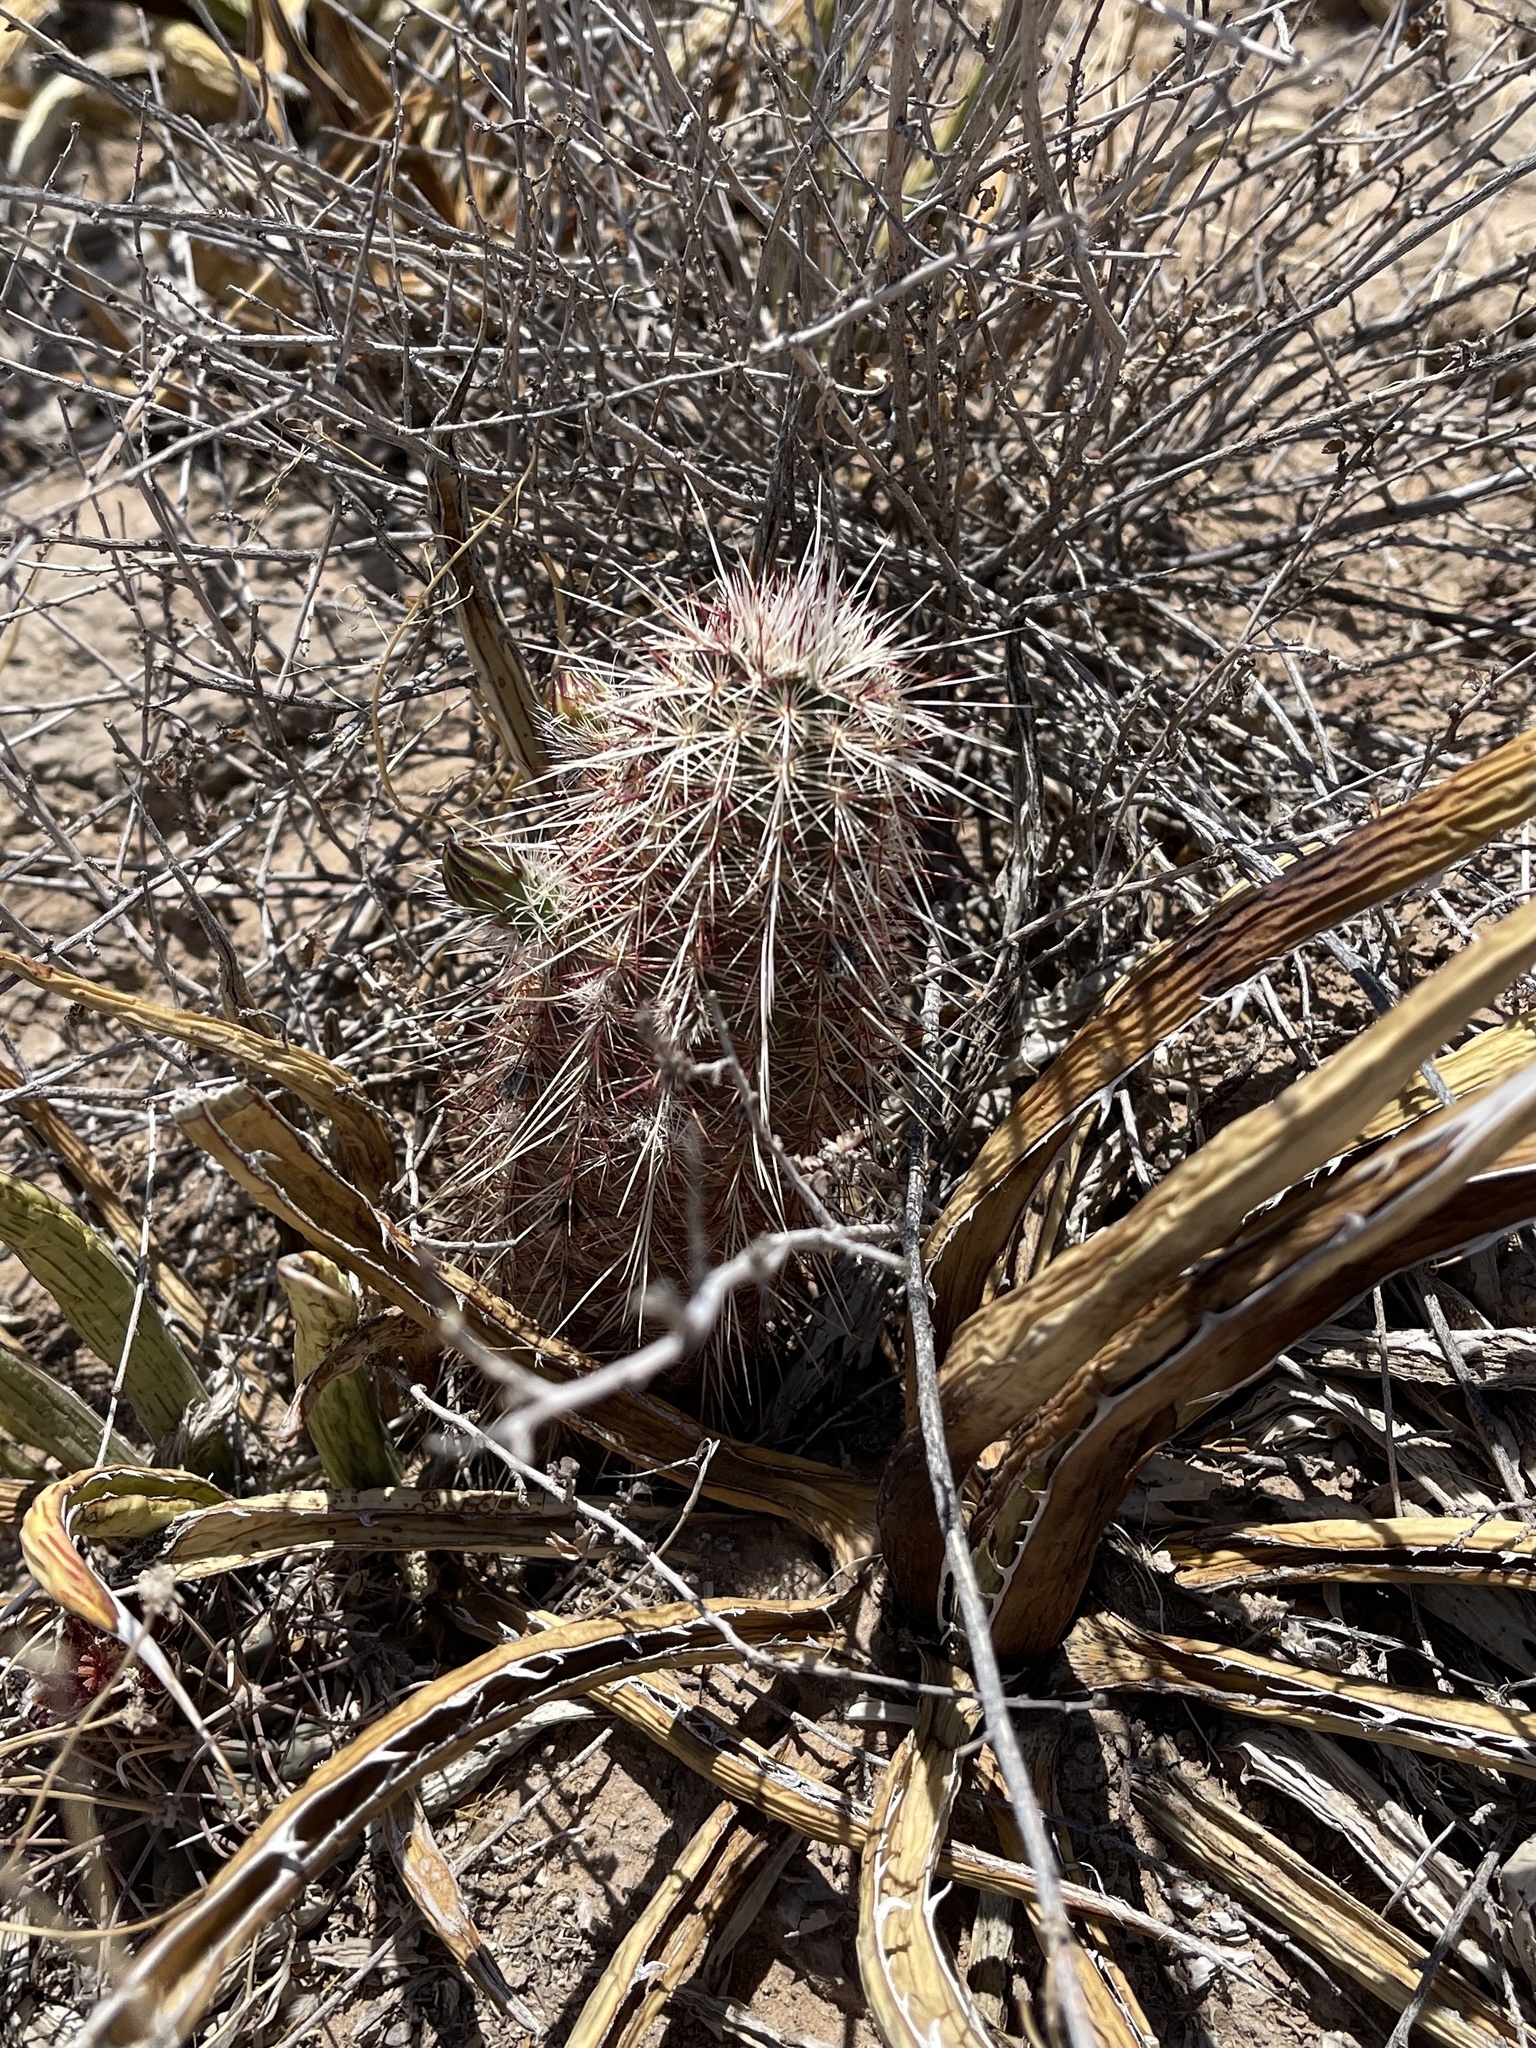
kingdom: Plantae
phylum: Tracheophyta
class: Magnoliopsida
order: Caryophyllales
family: Cactaceae
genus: Echinocereus
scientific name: Echinocereus viridiflorus
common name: Nylon hedgehog cactus
